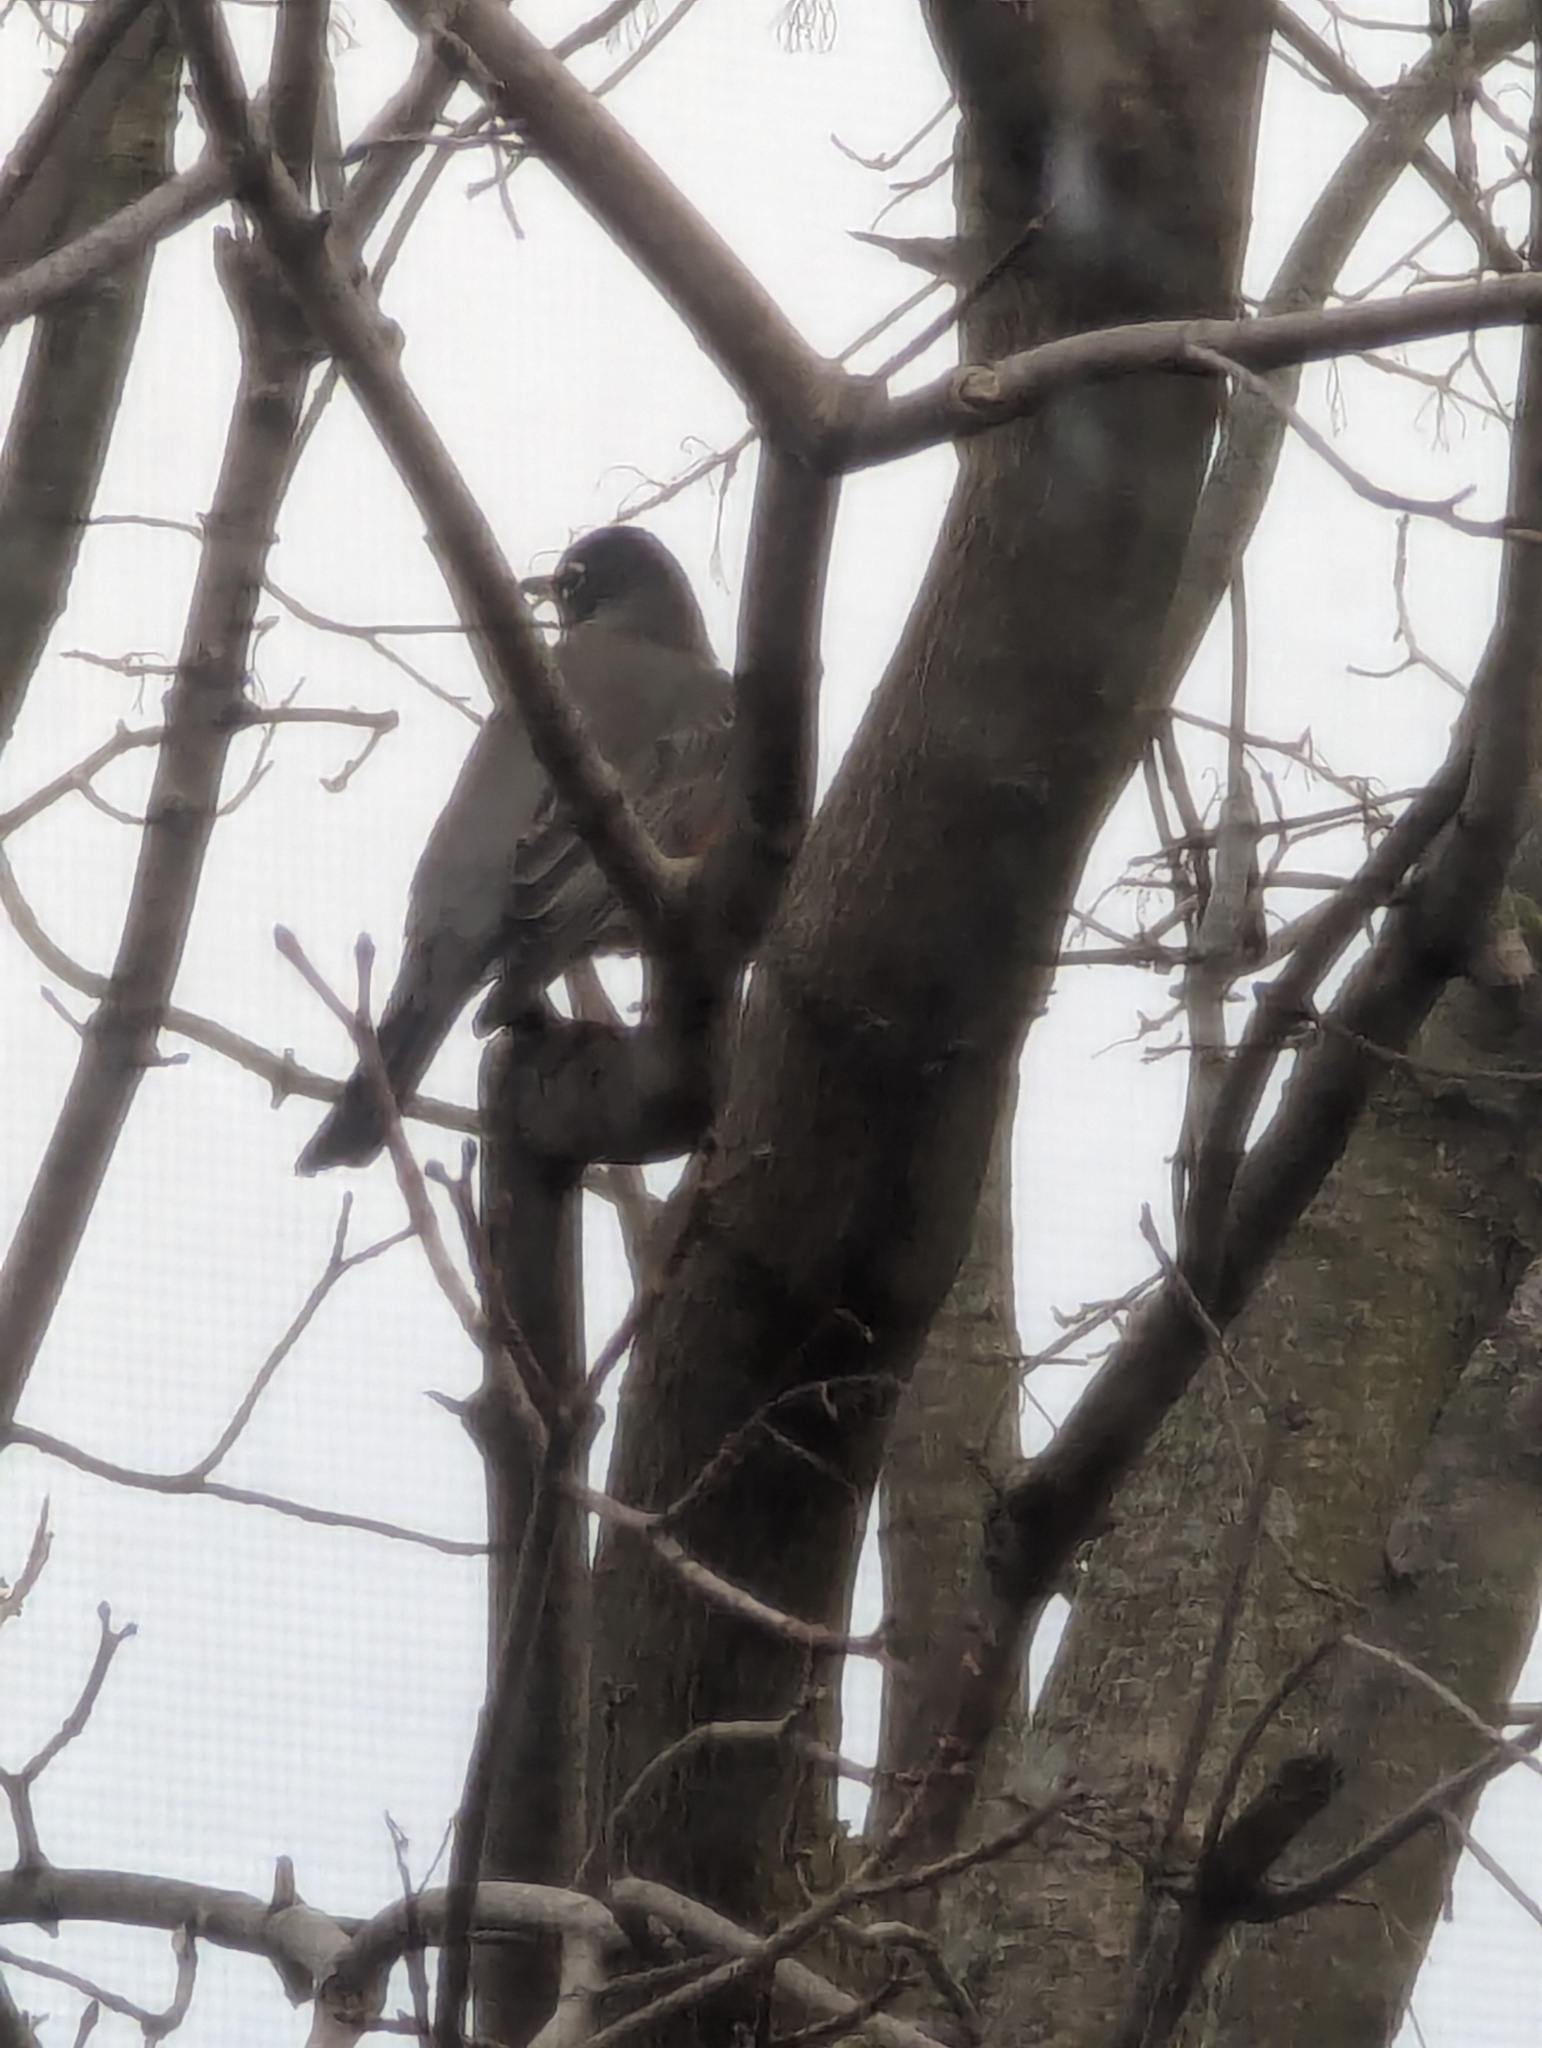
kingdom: Animalia
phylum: Chordata
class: Aves
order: Passeriformes
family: Turdidae
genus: Turdus
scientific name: Turdus migratorius
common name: American robin
